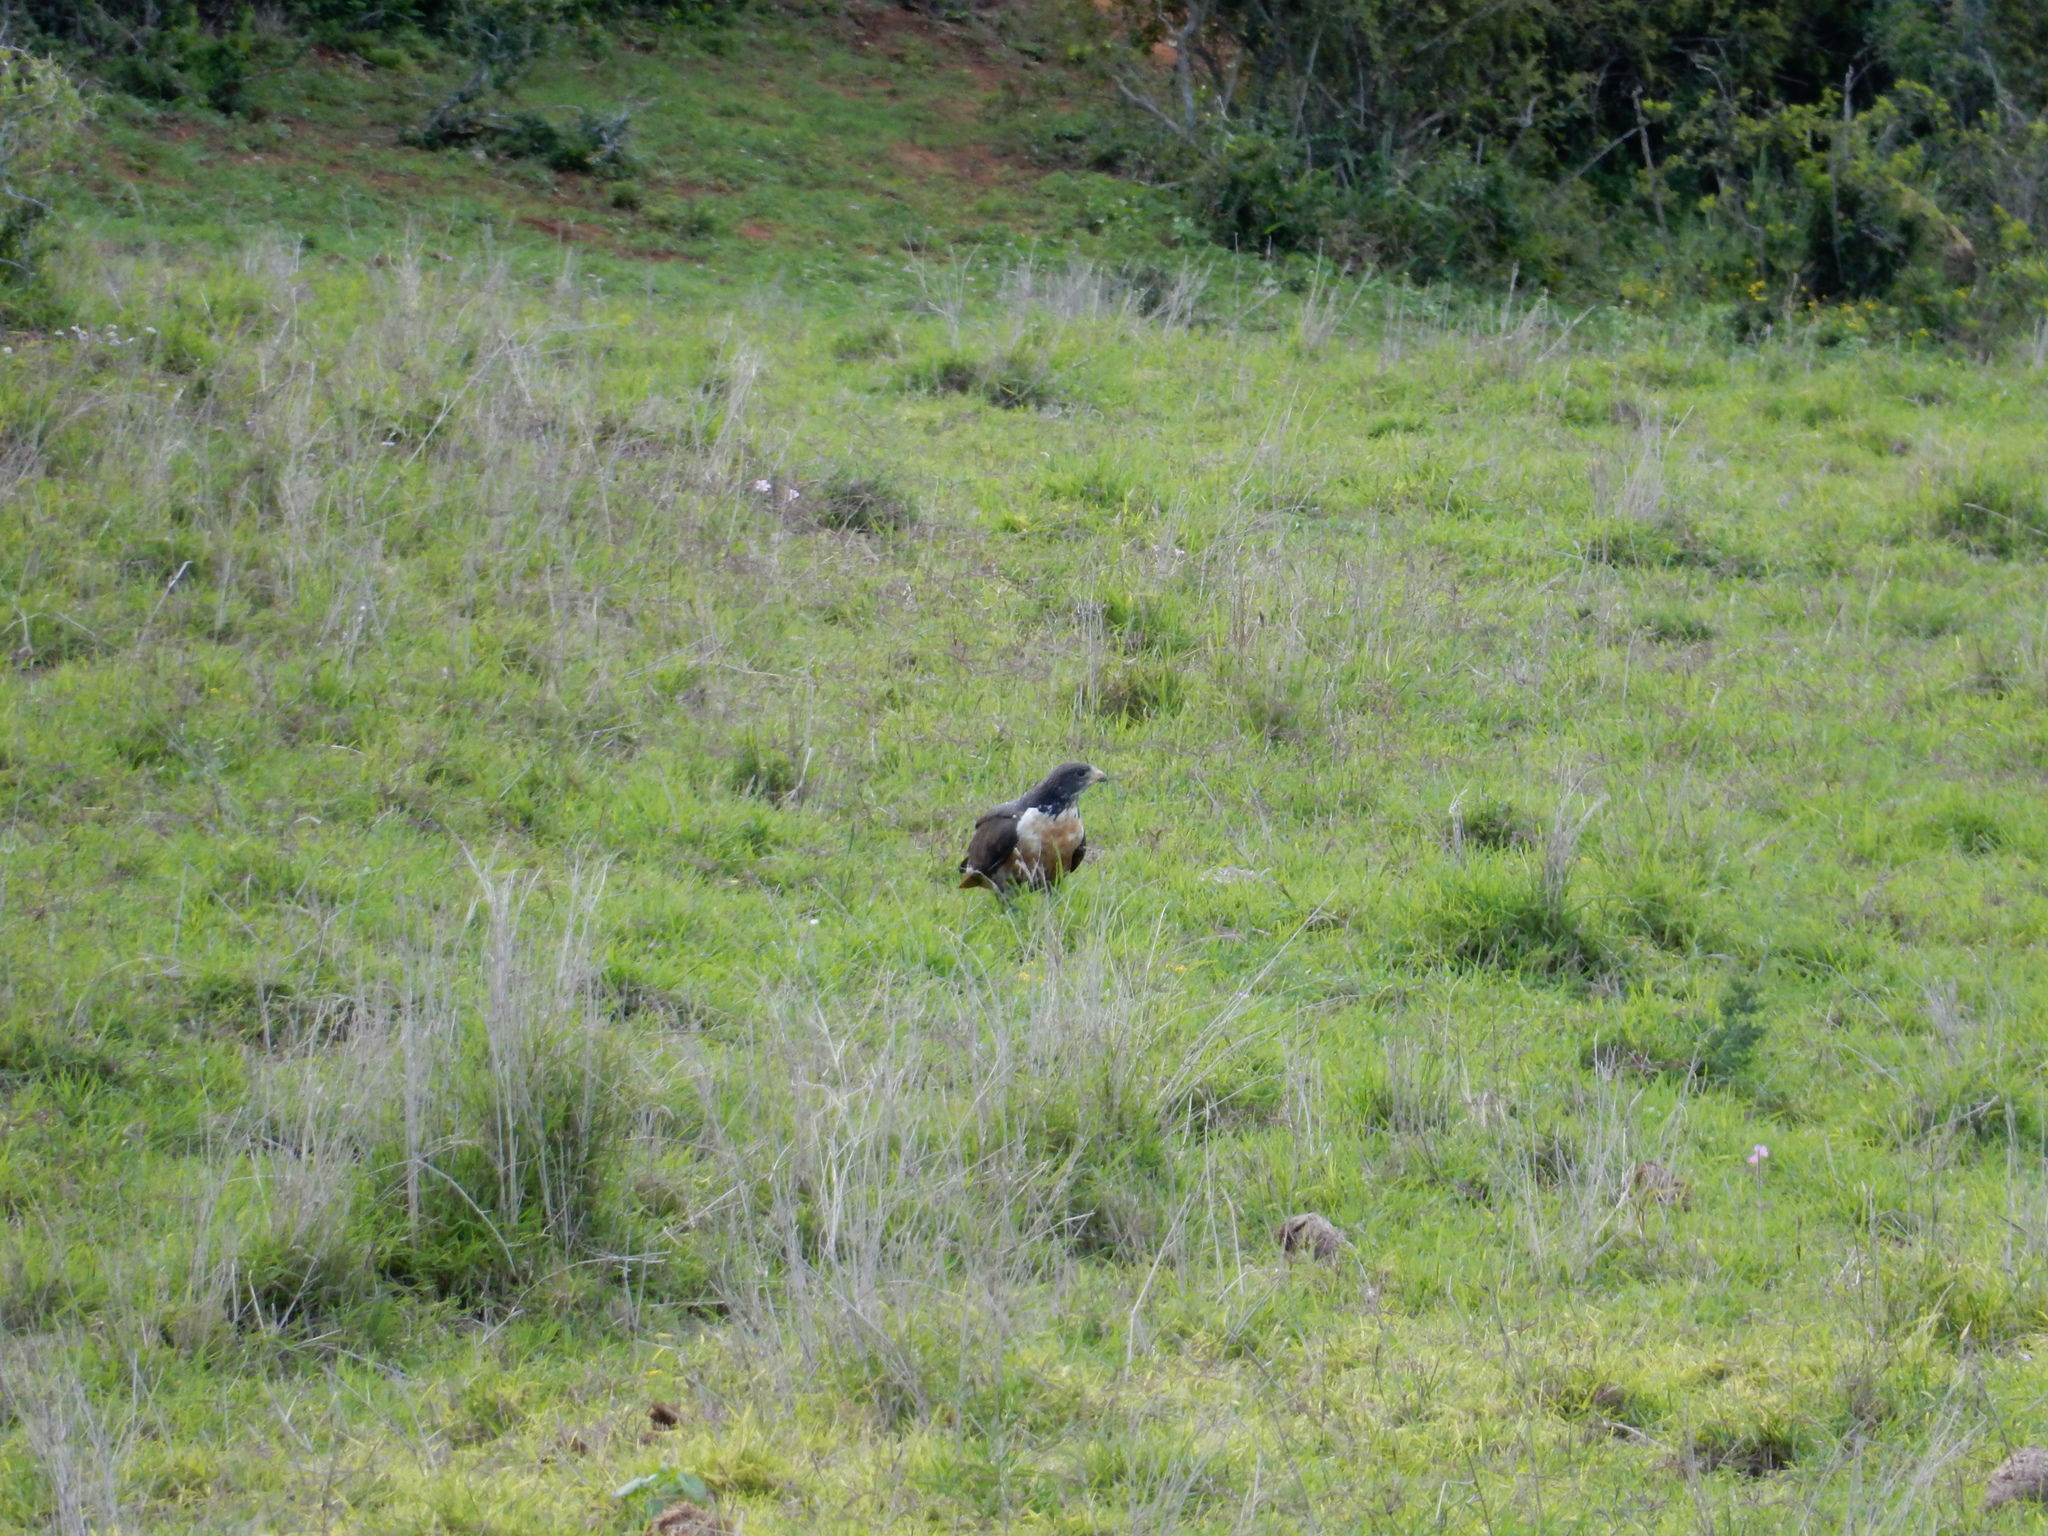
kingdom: Animalia
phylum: Chordata
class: Aves
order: Accipitriformes
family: Accipitridae
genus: Buteo
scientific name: Buteo rufofuscus
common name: Jackal buzzard
